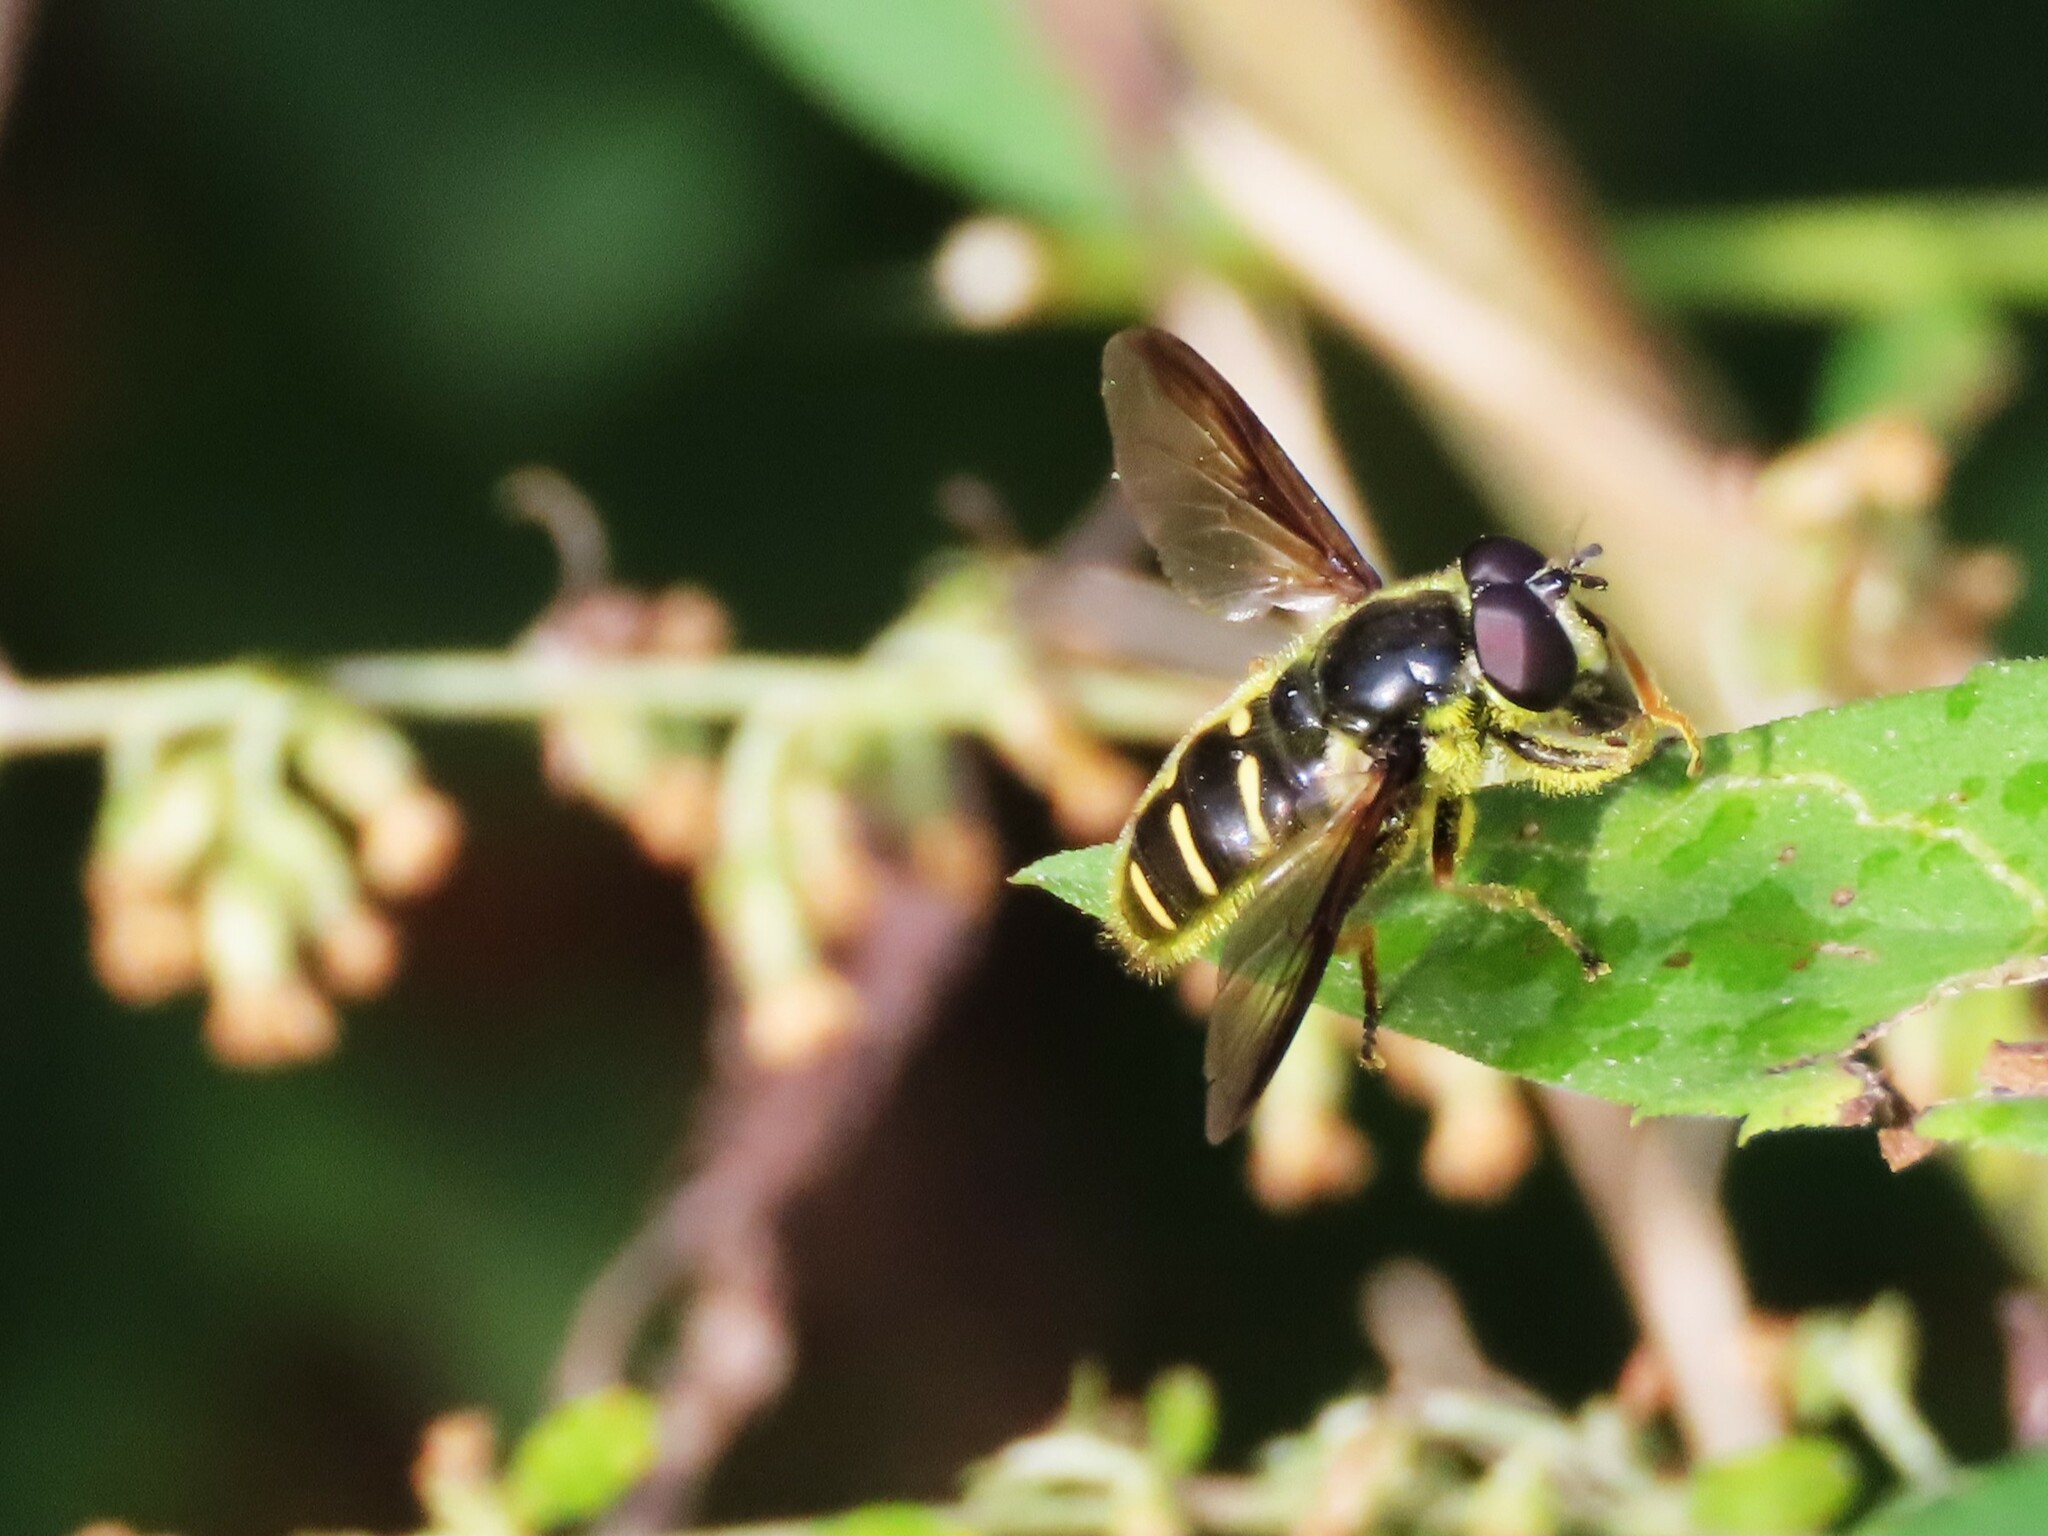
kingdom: Animalia
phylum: Arthropoda
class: Insecta
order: Diptera
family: Syrphidae
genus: Sericomyia
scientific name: Sericomyia chrysotoxoides
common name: Oblique-banded pond fly
